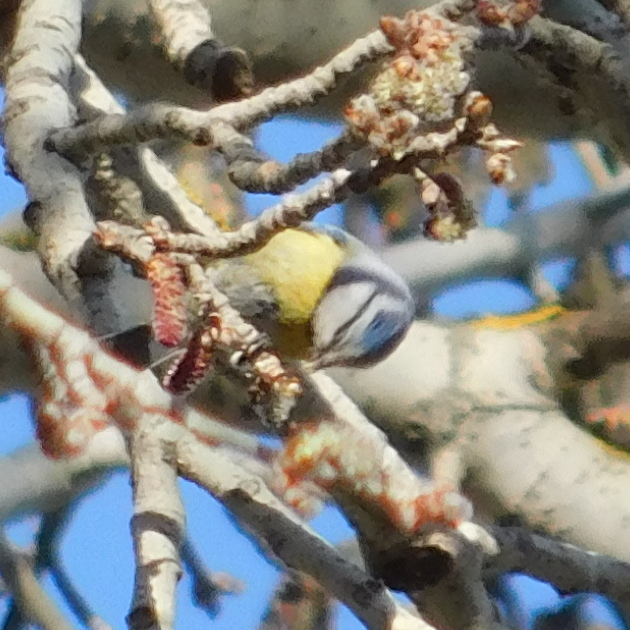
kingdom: Animalia
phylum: Chordata
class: Aves
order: Passeriformes
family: Paridae
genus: Cyanistes
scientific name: Cyanistes caeruleus
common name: Eurasian blue tit
